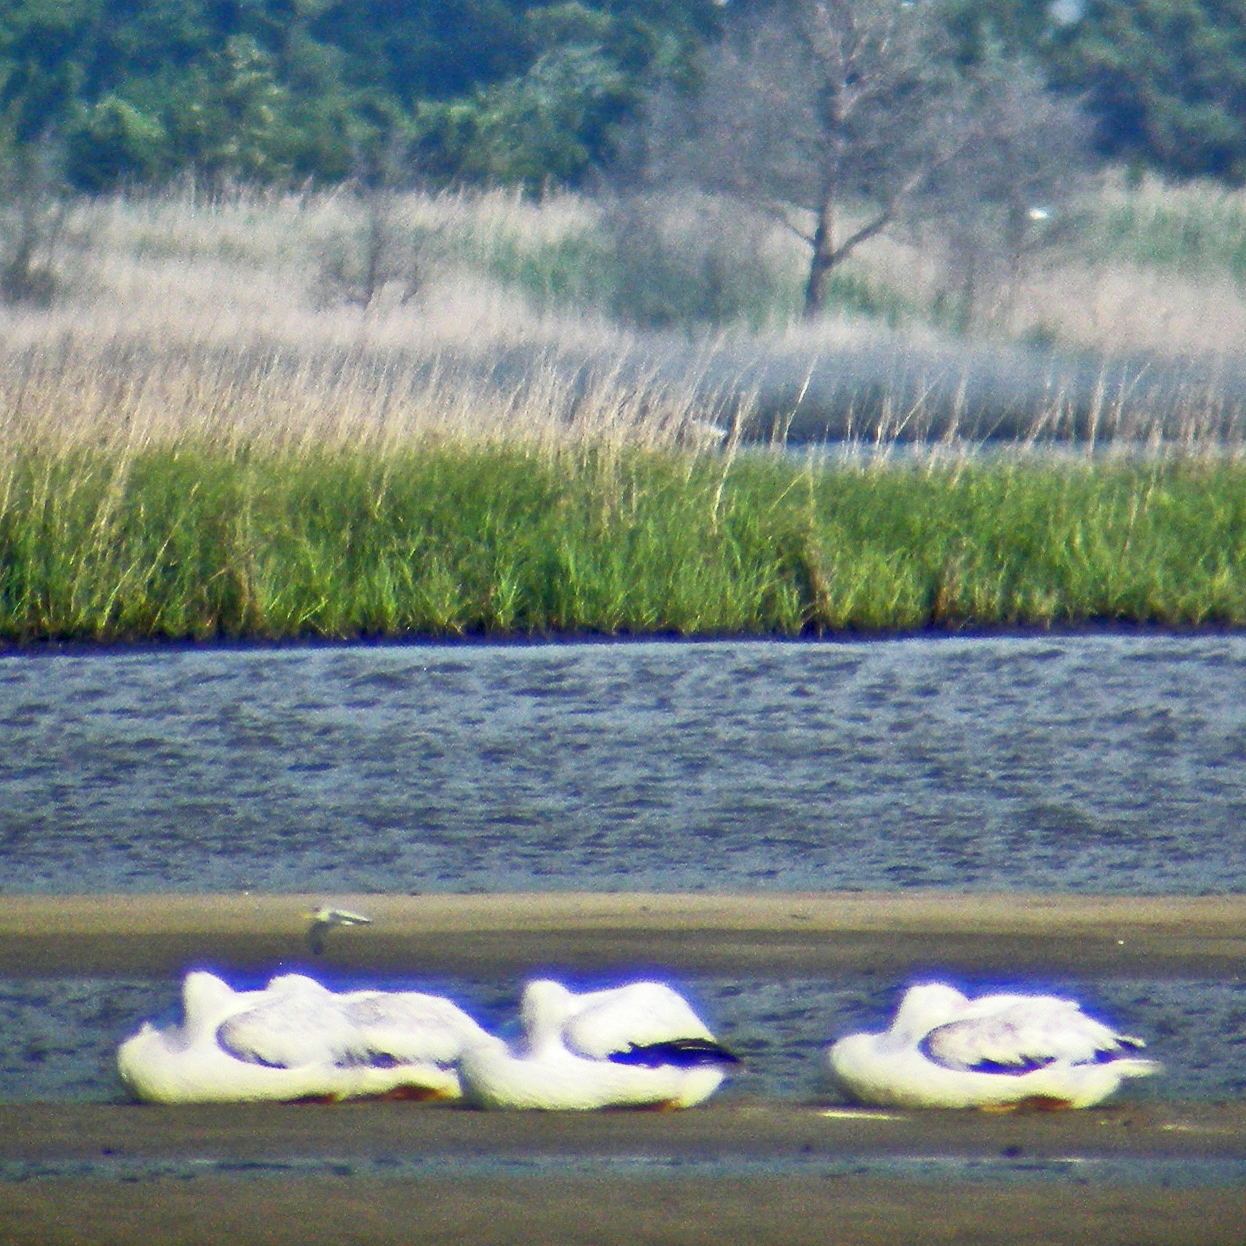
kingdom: Animalia
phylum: Chordata
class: Aves
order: Pelecaniformes
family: Pelecanidae
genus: Pelecanus
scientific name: Pelecanus erythrorhynchos
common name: American white pelican
